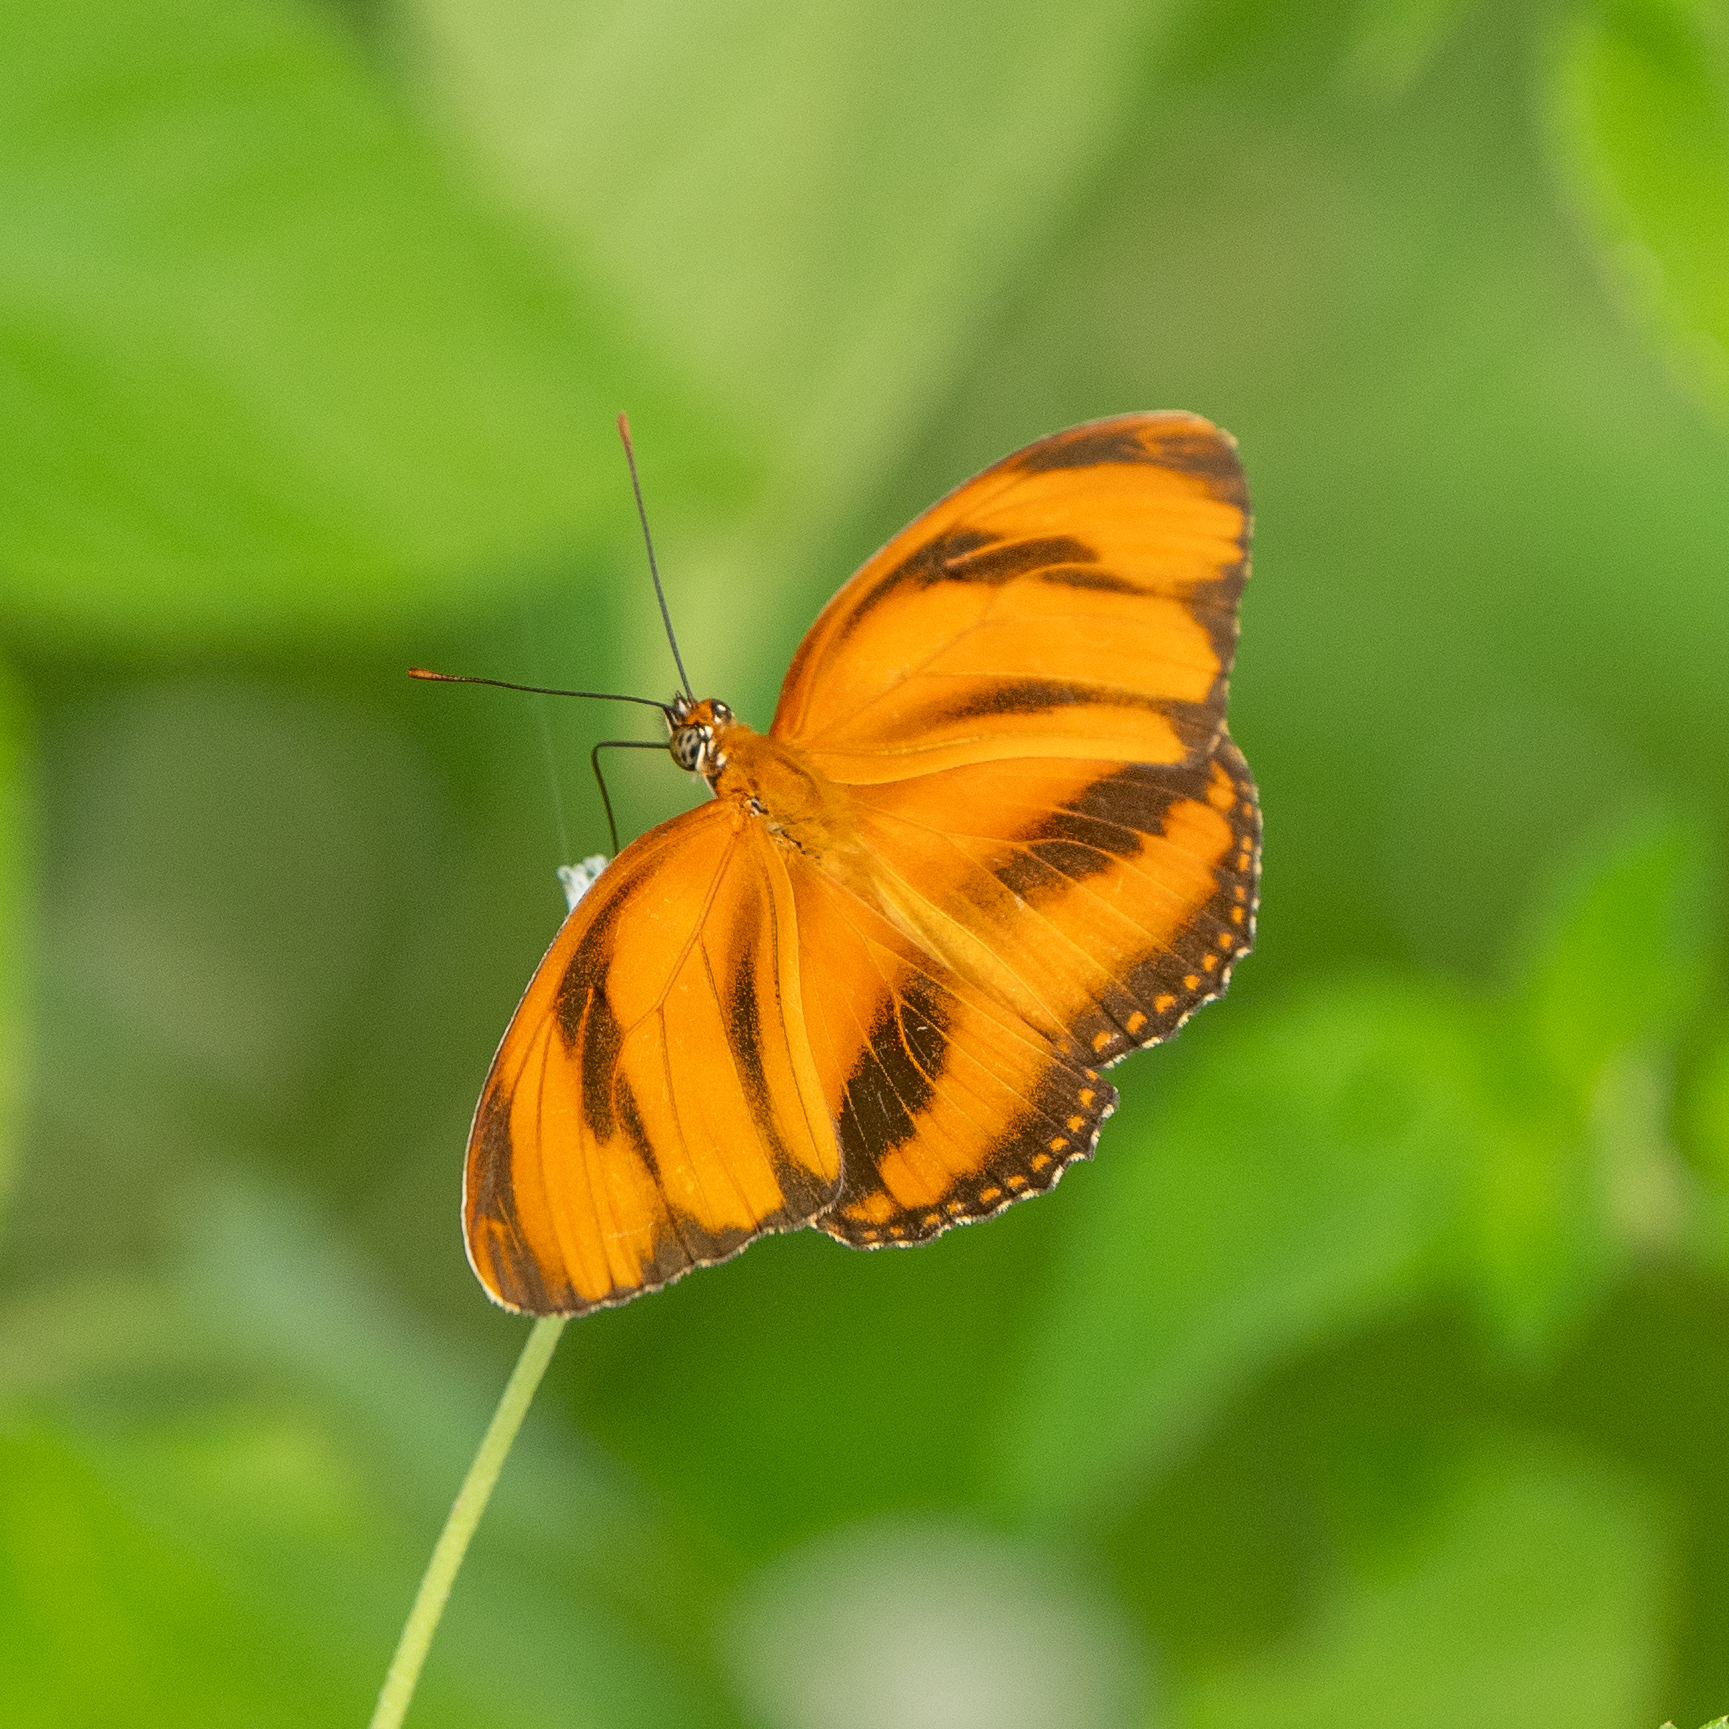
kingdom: Animalia
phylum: Arthropoda
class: Insecta
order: Lepidoptera
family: Nymphalidae
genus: Dryadula
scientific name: Dryadula phaetusa
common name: Banded orange heliconian
